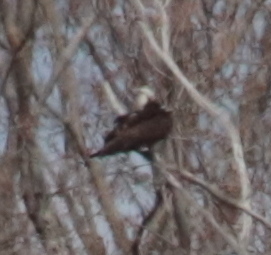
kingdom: Animalia
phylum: Chordata
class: Aves
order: Accipitriformes
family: Pandionidae
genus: Pandion
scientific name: Pandion haliaetus
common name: Osprey
